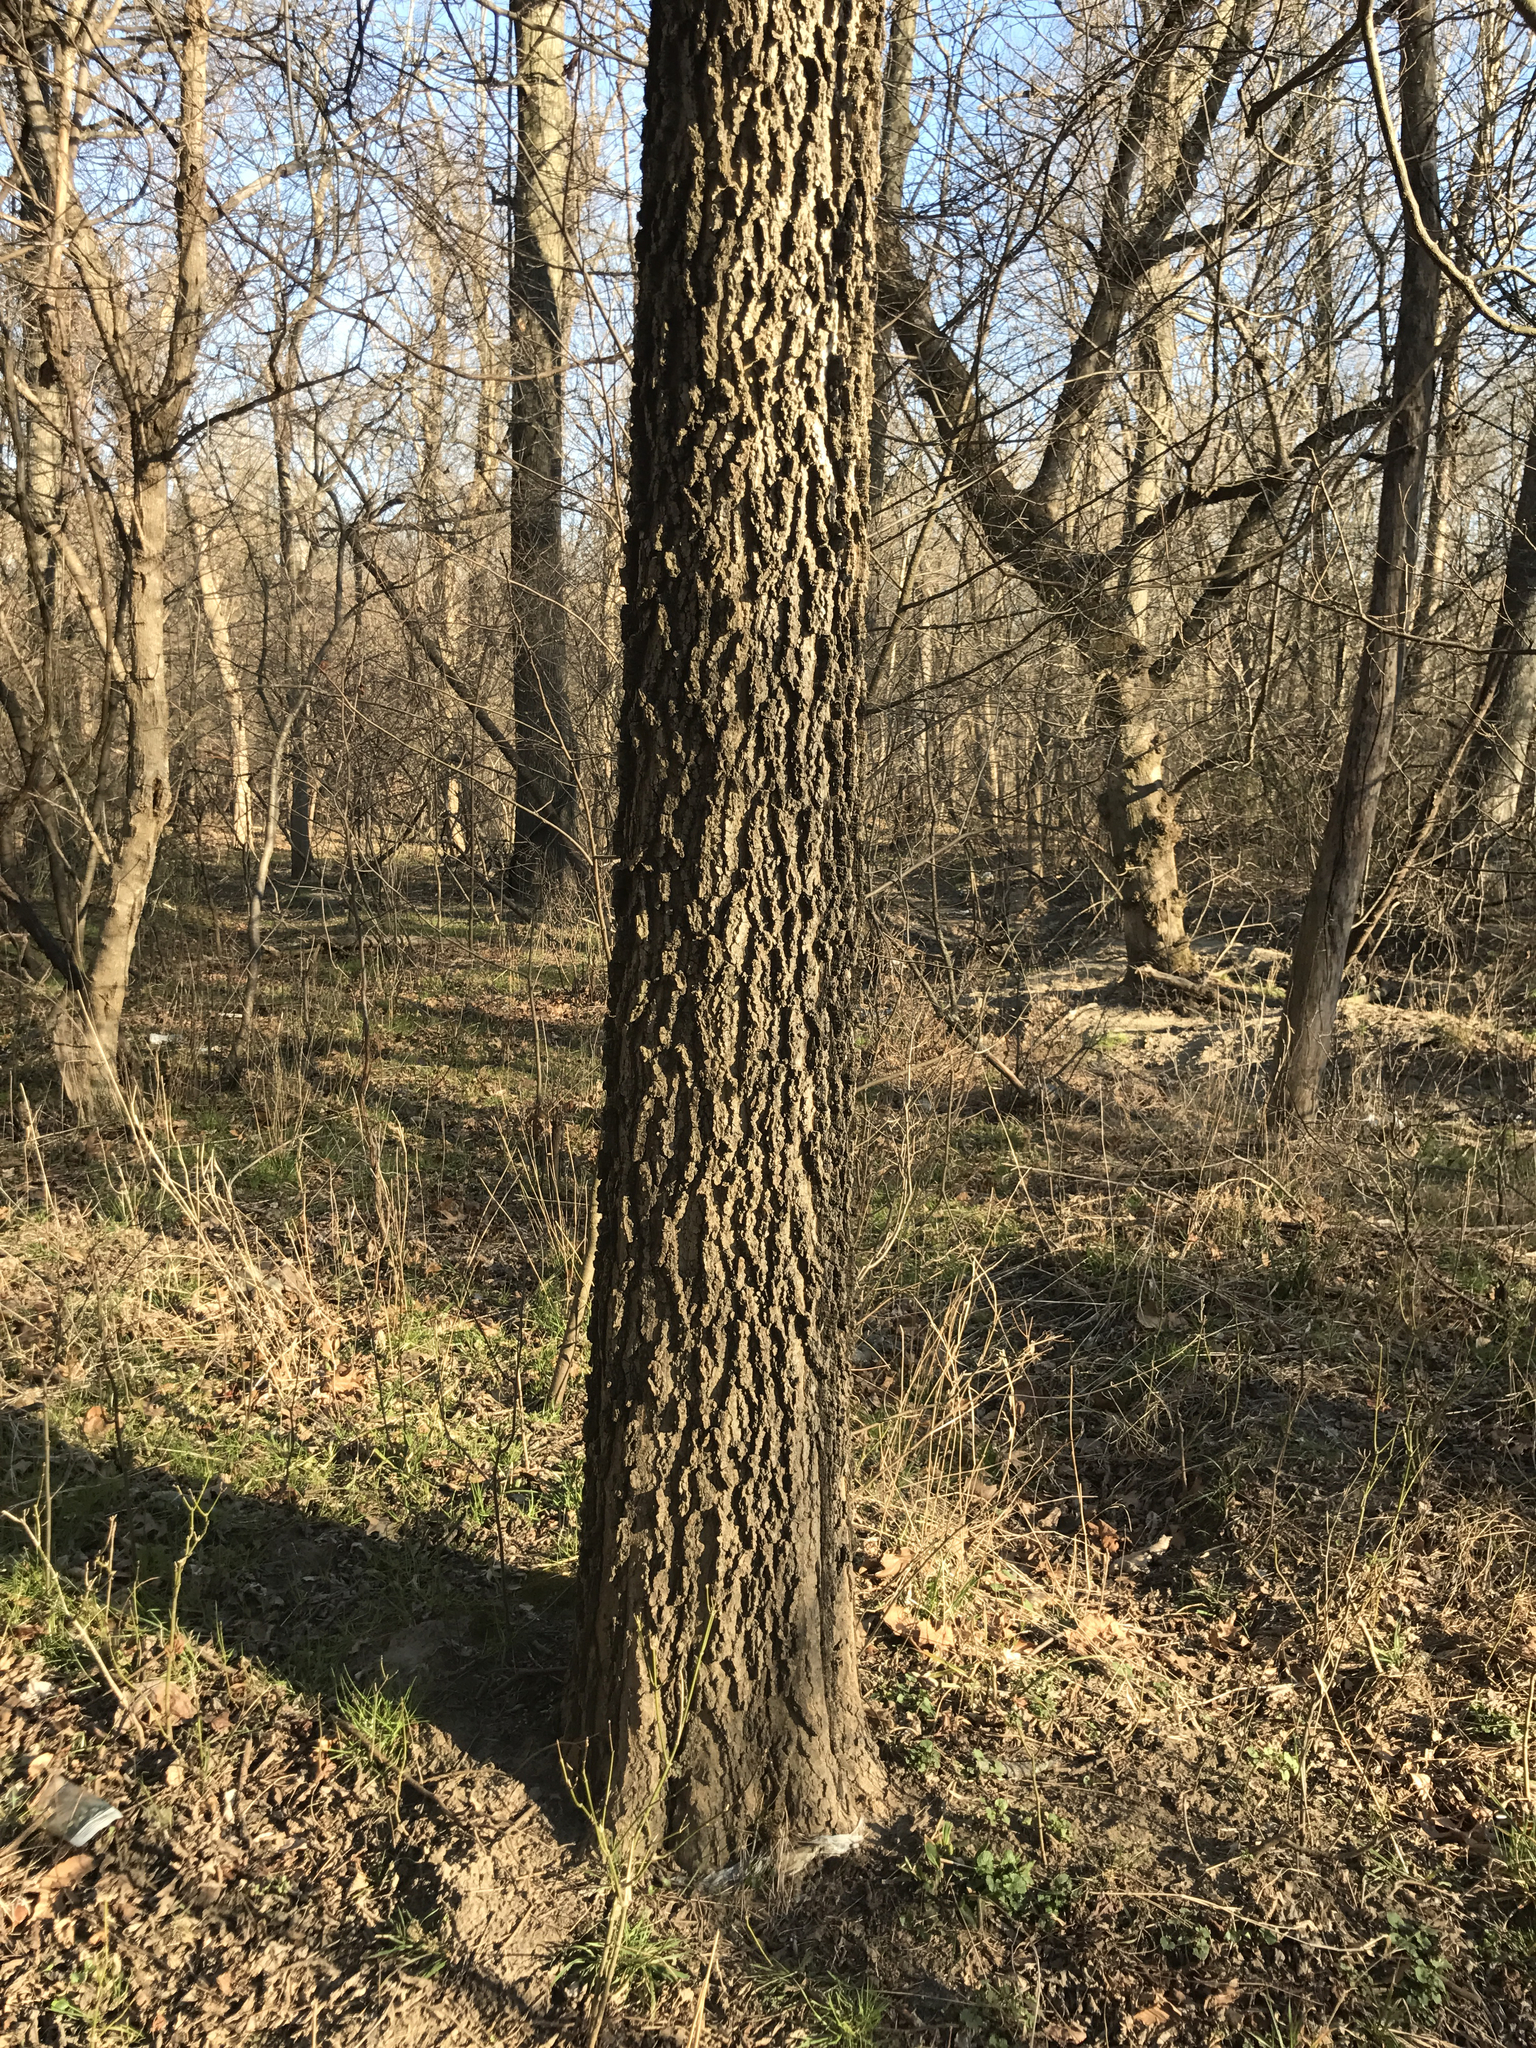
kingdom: Plantae
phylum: Tracheophyta
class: Magnoliopsida
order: Rosales
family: Cannabaceae
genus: Celtis
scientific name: Celtis occidentalis
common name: Common hackberry
